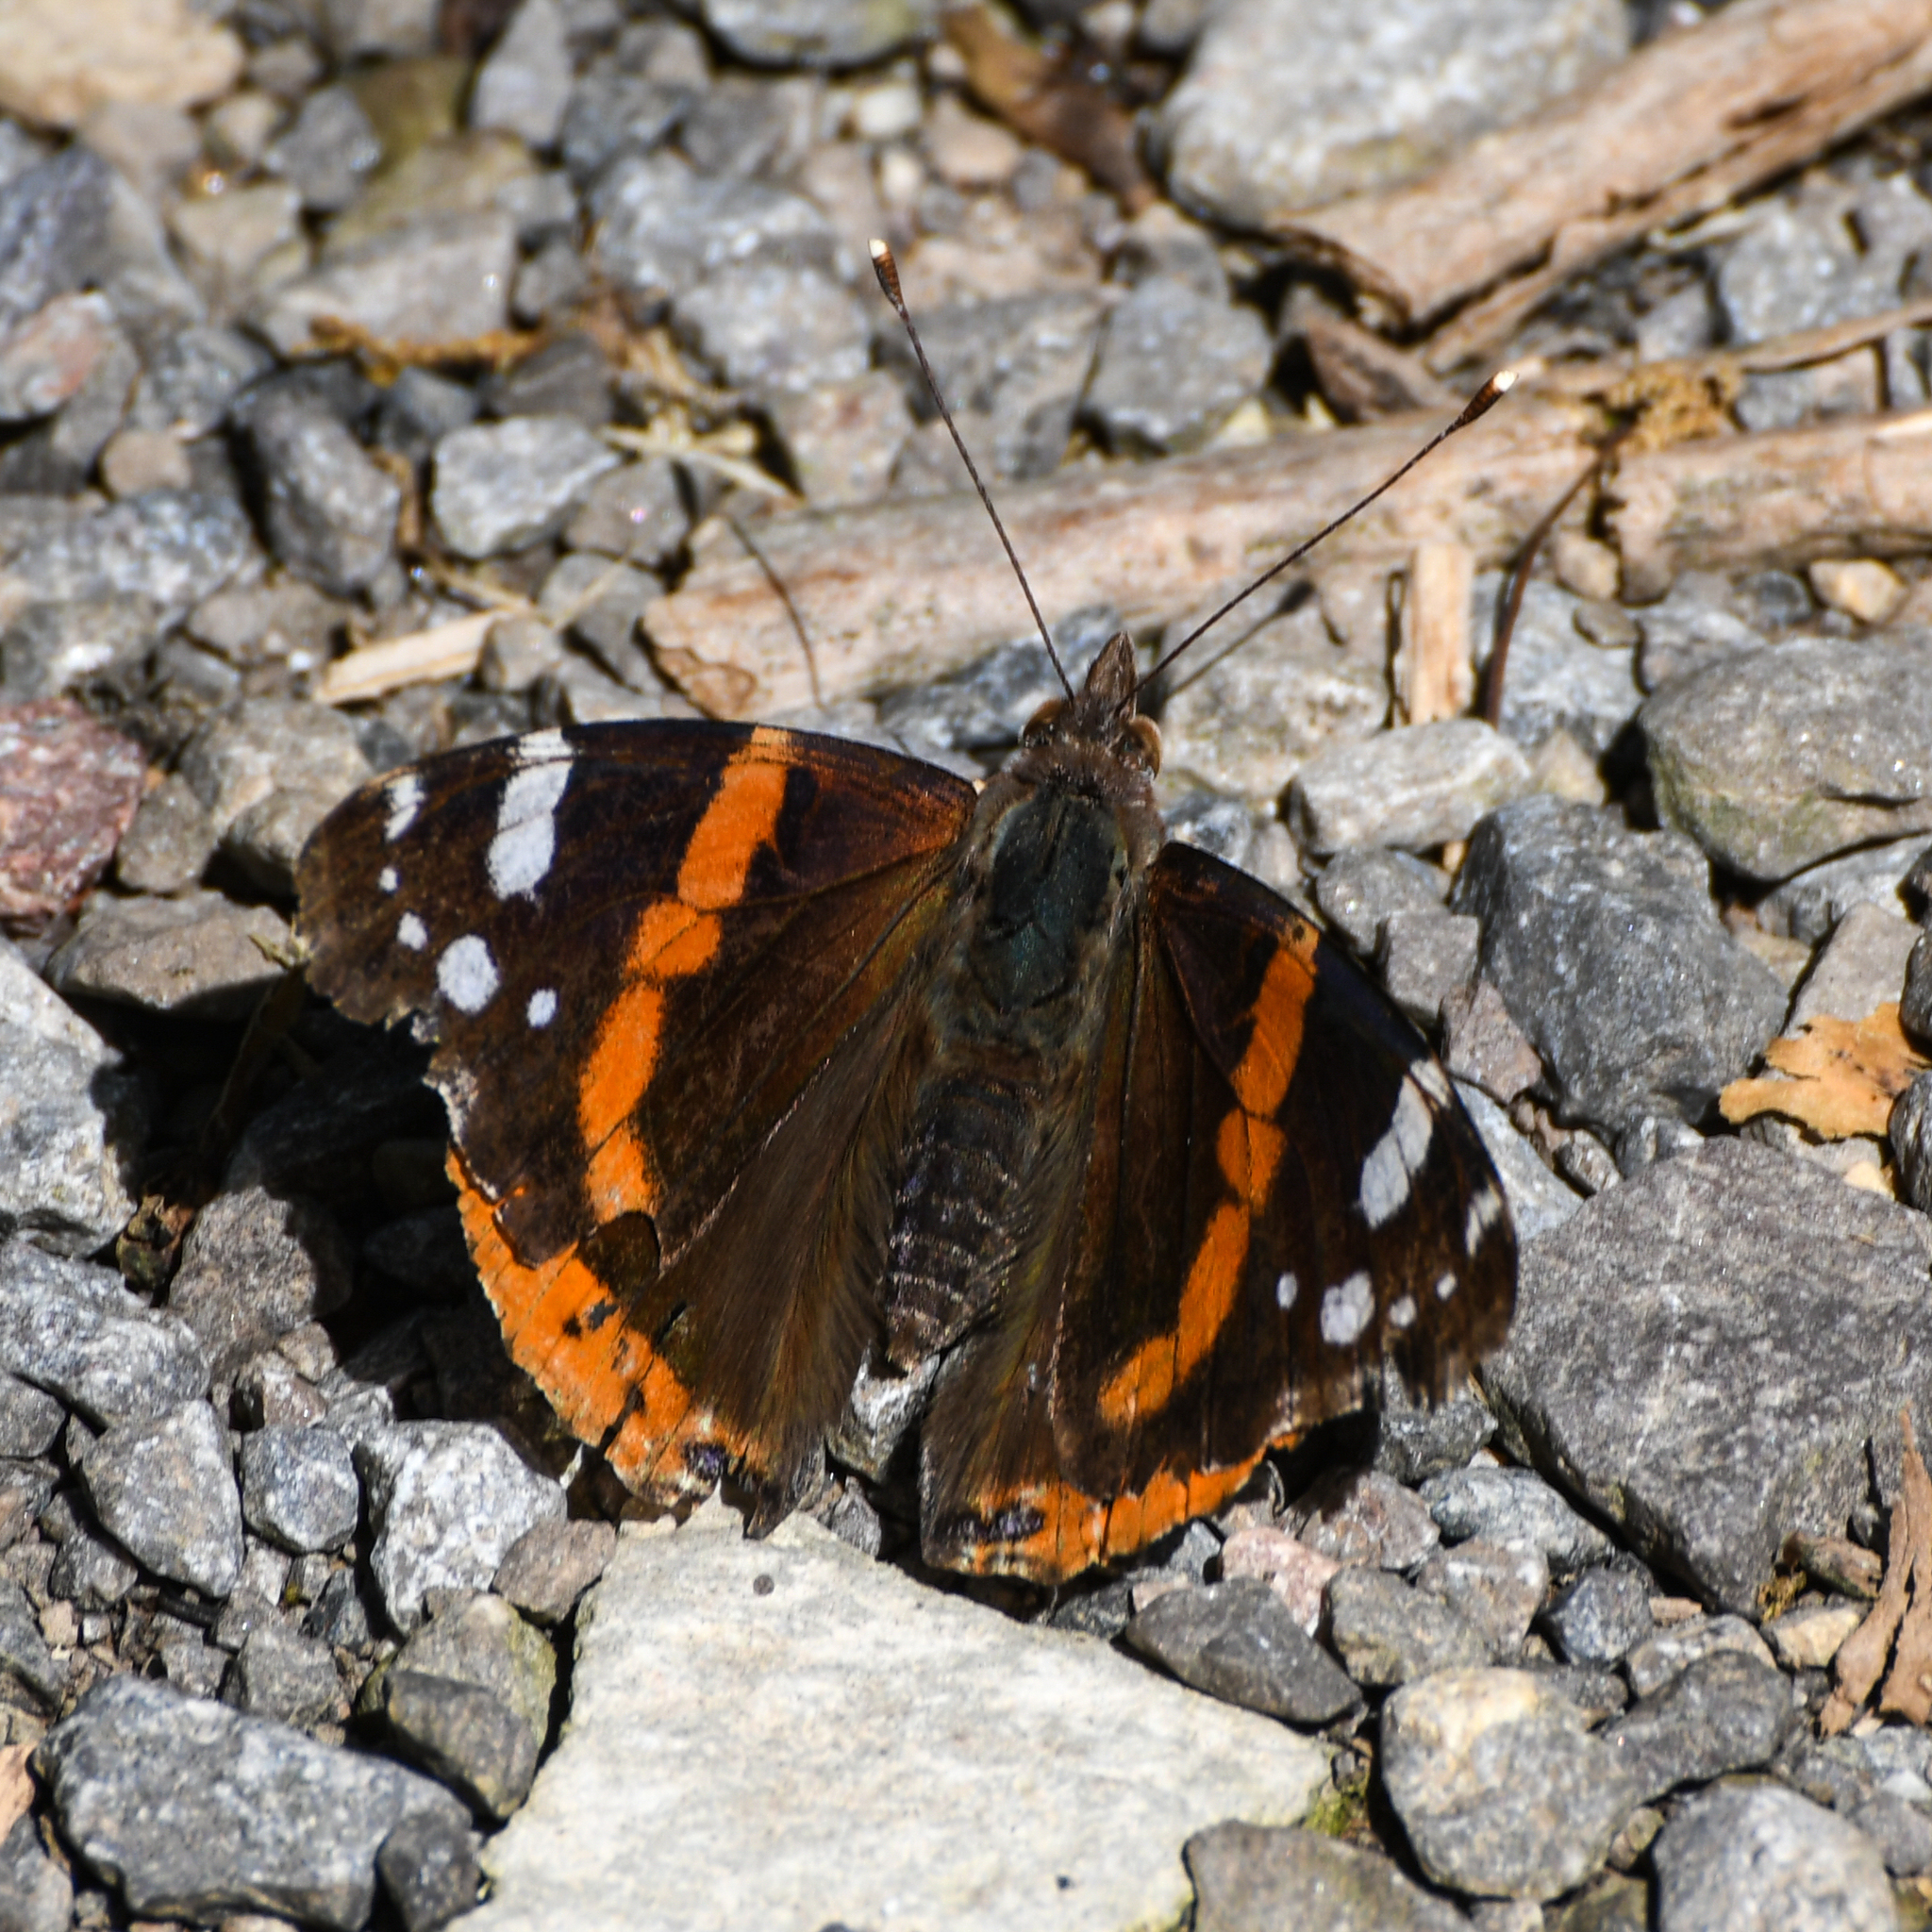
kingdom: Animalia
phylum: Arthropoda
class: Insecta
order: Lepidoptera
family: Nymphalidae
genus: Vanessa
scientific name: Vanessa atalanta
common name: Red admiral
